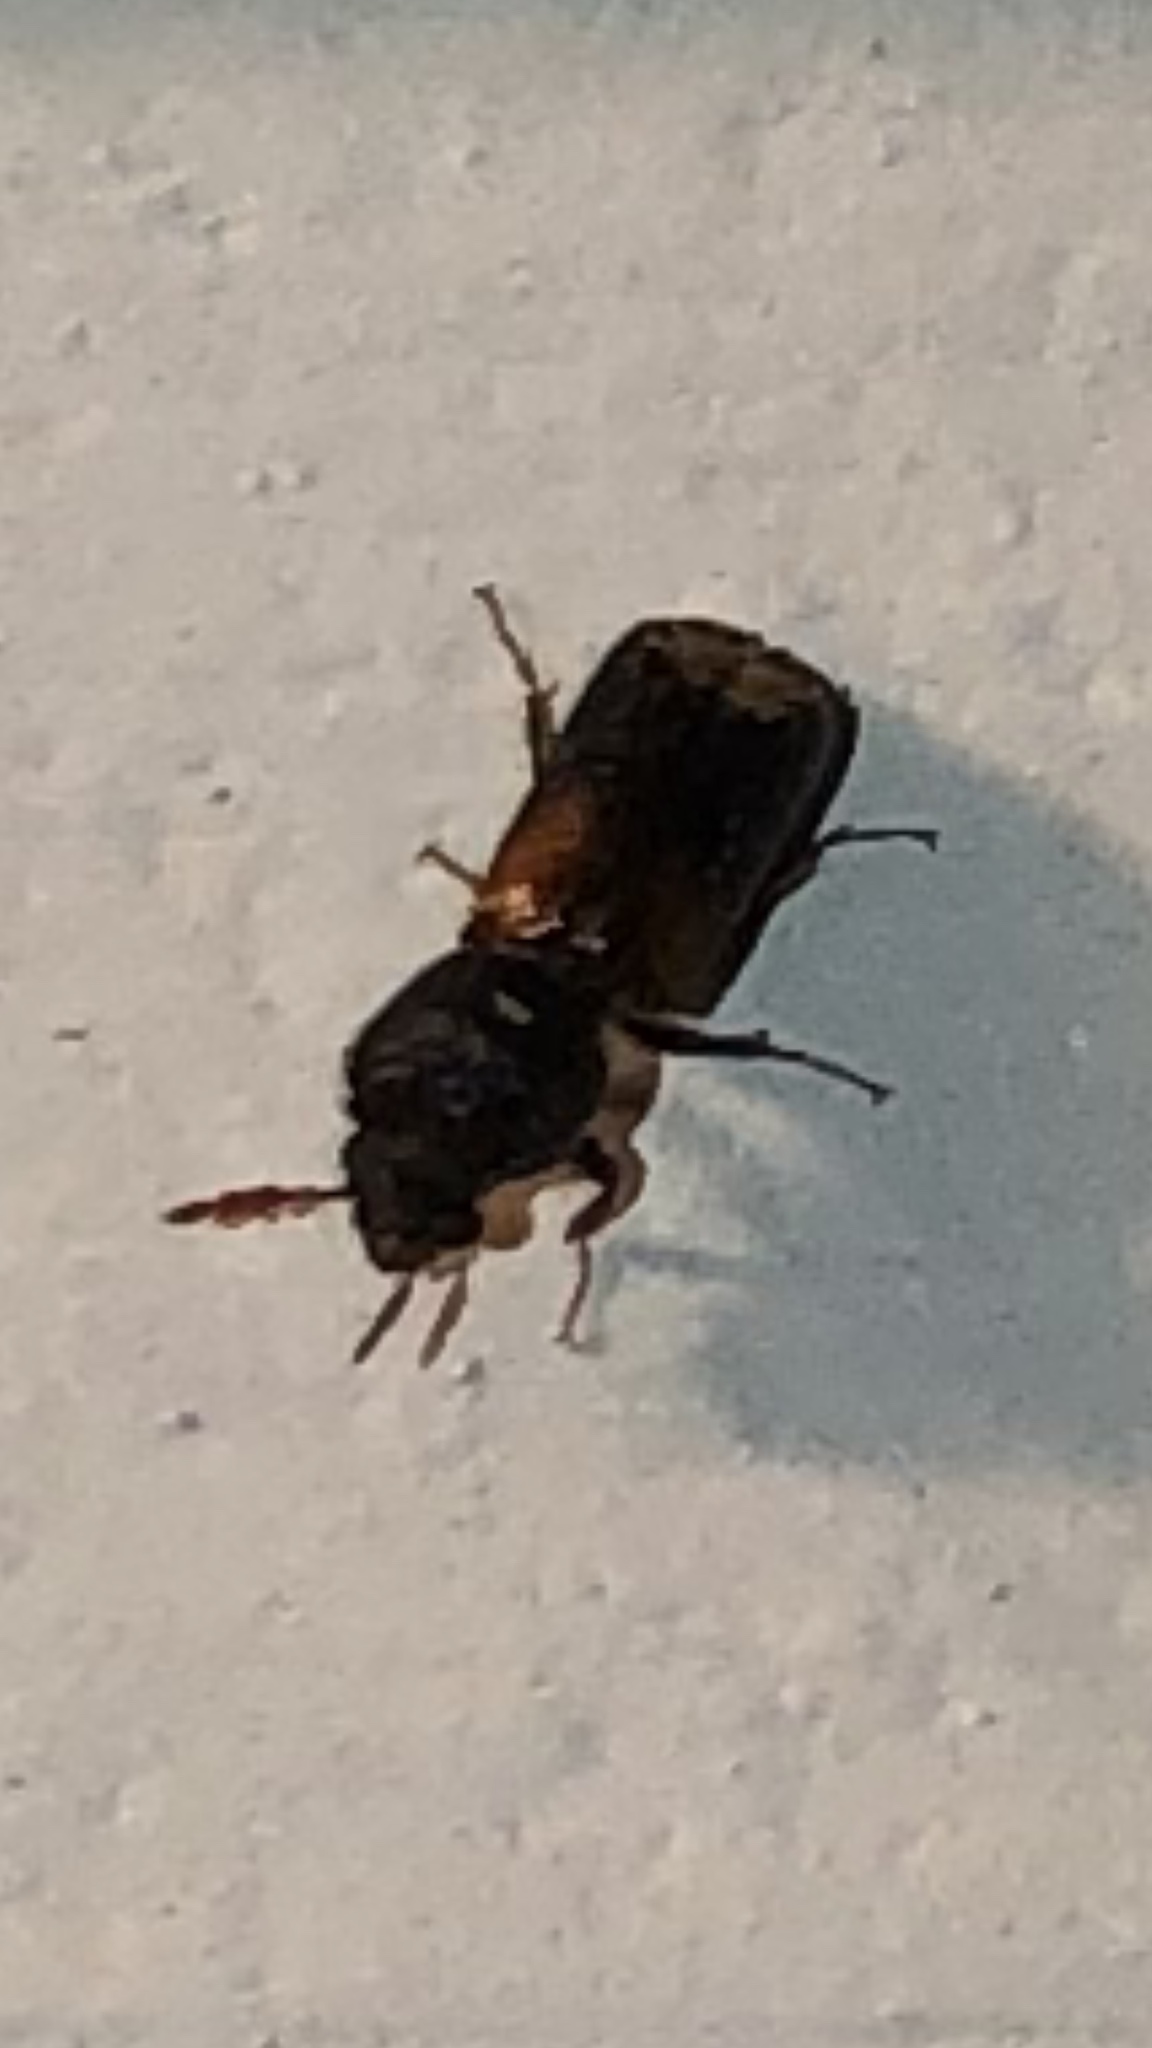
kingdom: Animalia
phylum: Arthropoda
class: Insecta
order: Coleoptera
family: Bostrichidae
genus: Xylobiops
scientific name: Xylobiops basilaris
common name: Red-shouldered bostrichid
